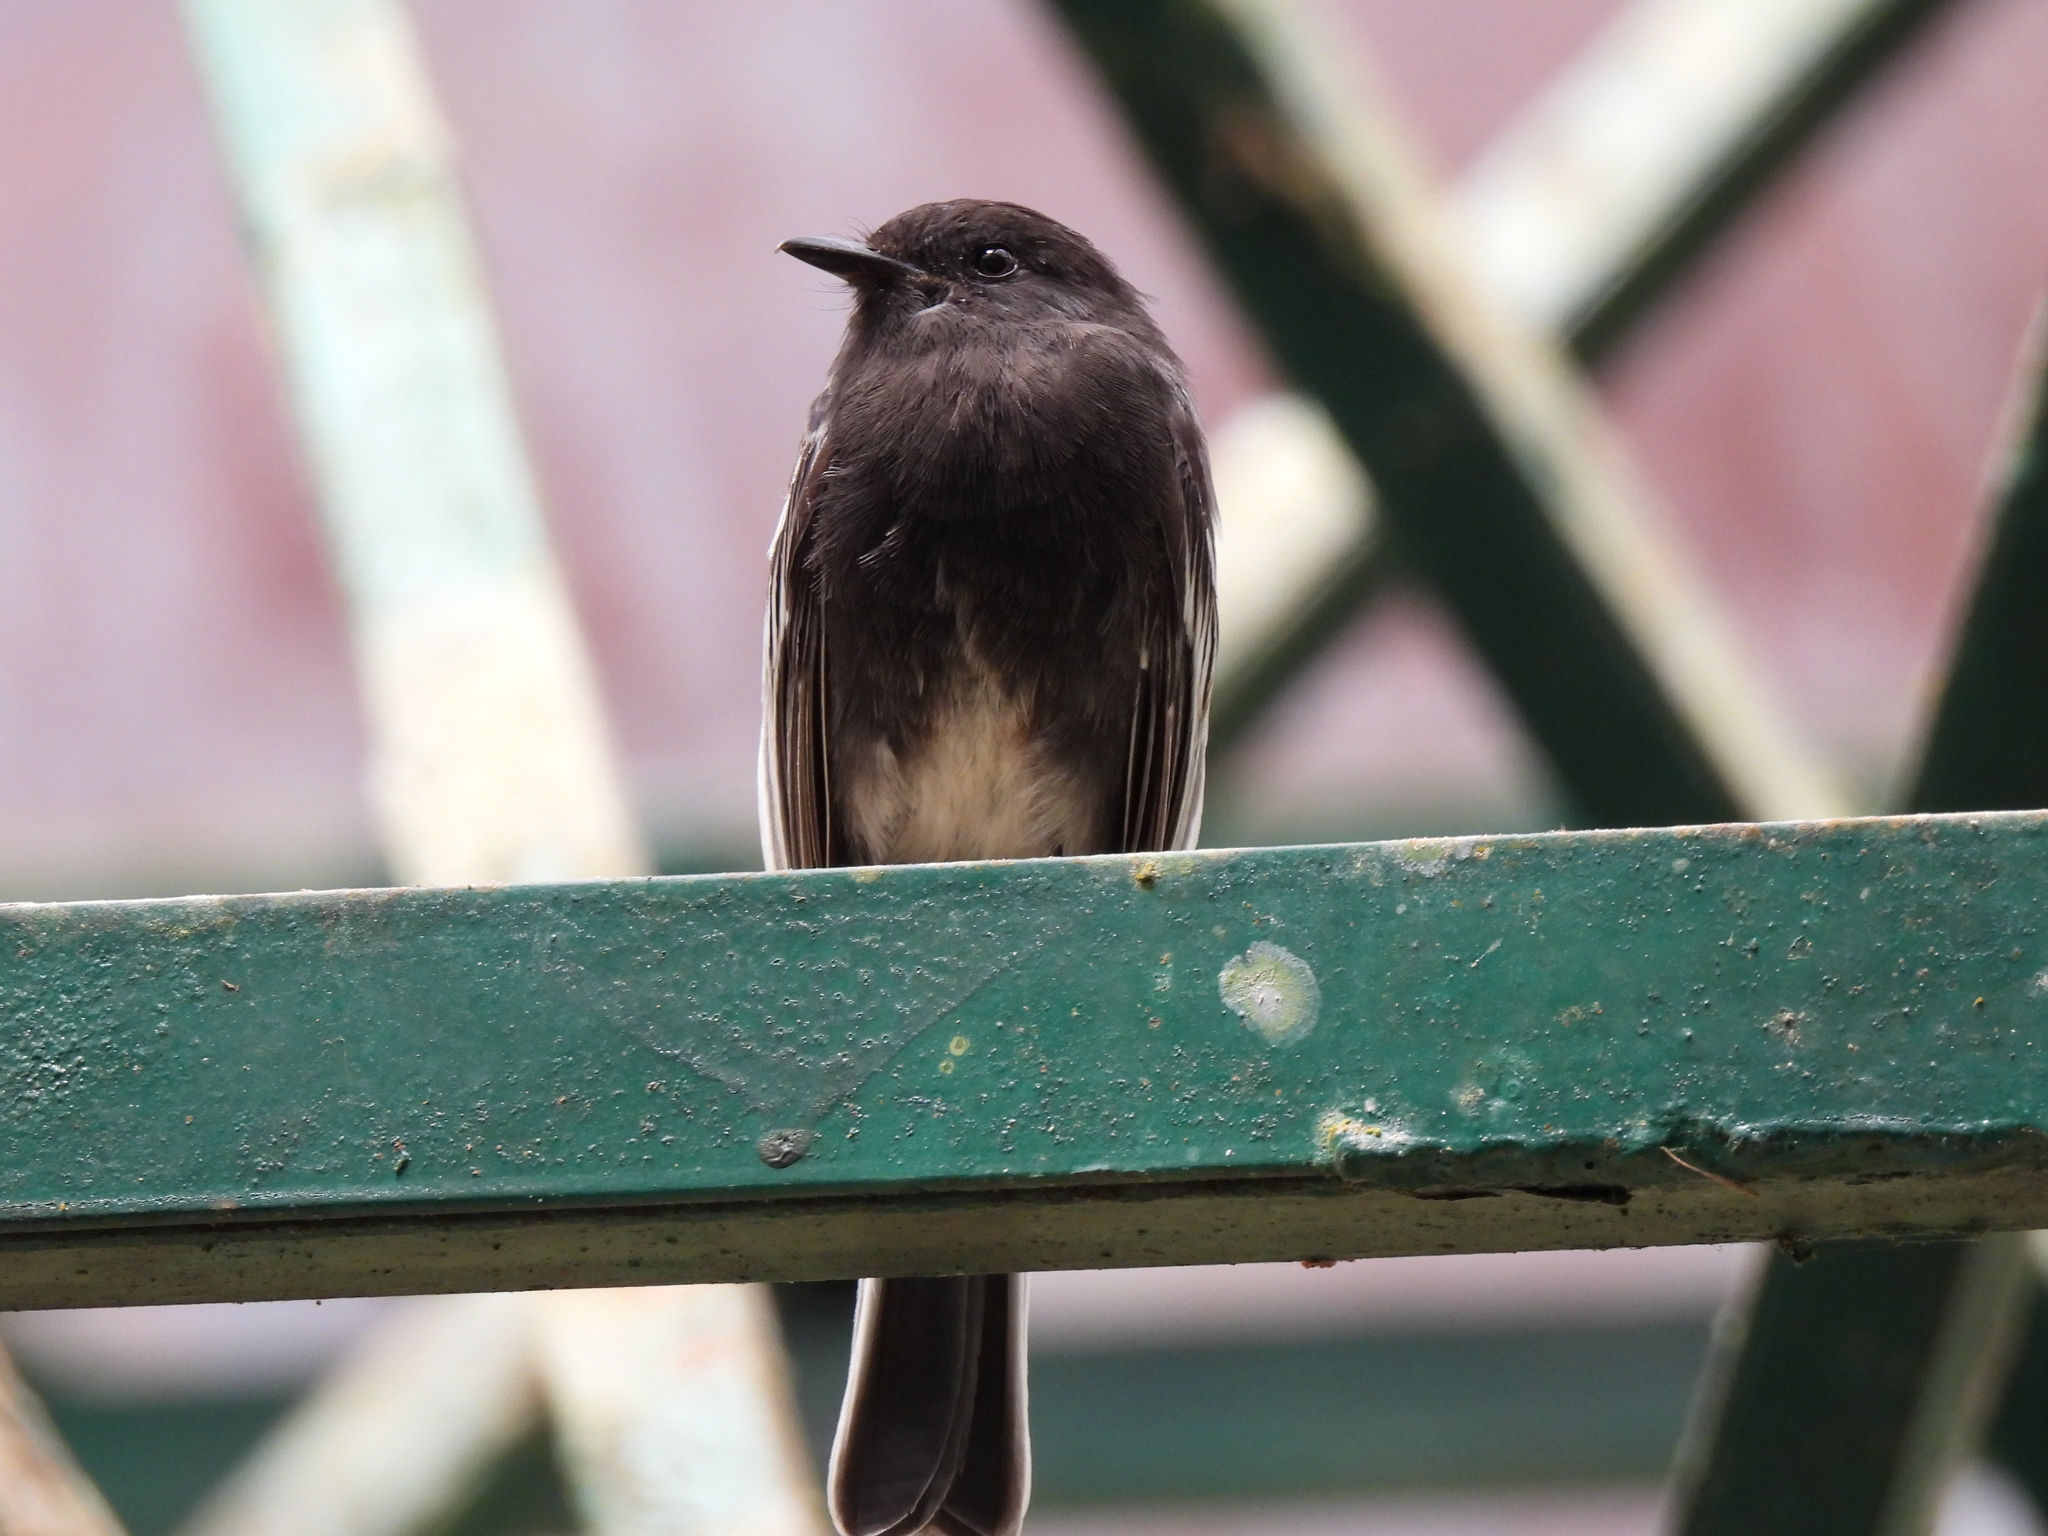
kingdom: Animalia
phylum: Chordata
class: Aves
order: Passeriformes
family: Tyrannidae
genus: Sayornis
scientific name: Sayornis nigricans
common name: Black phoebe
